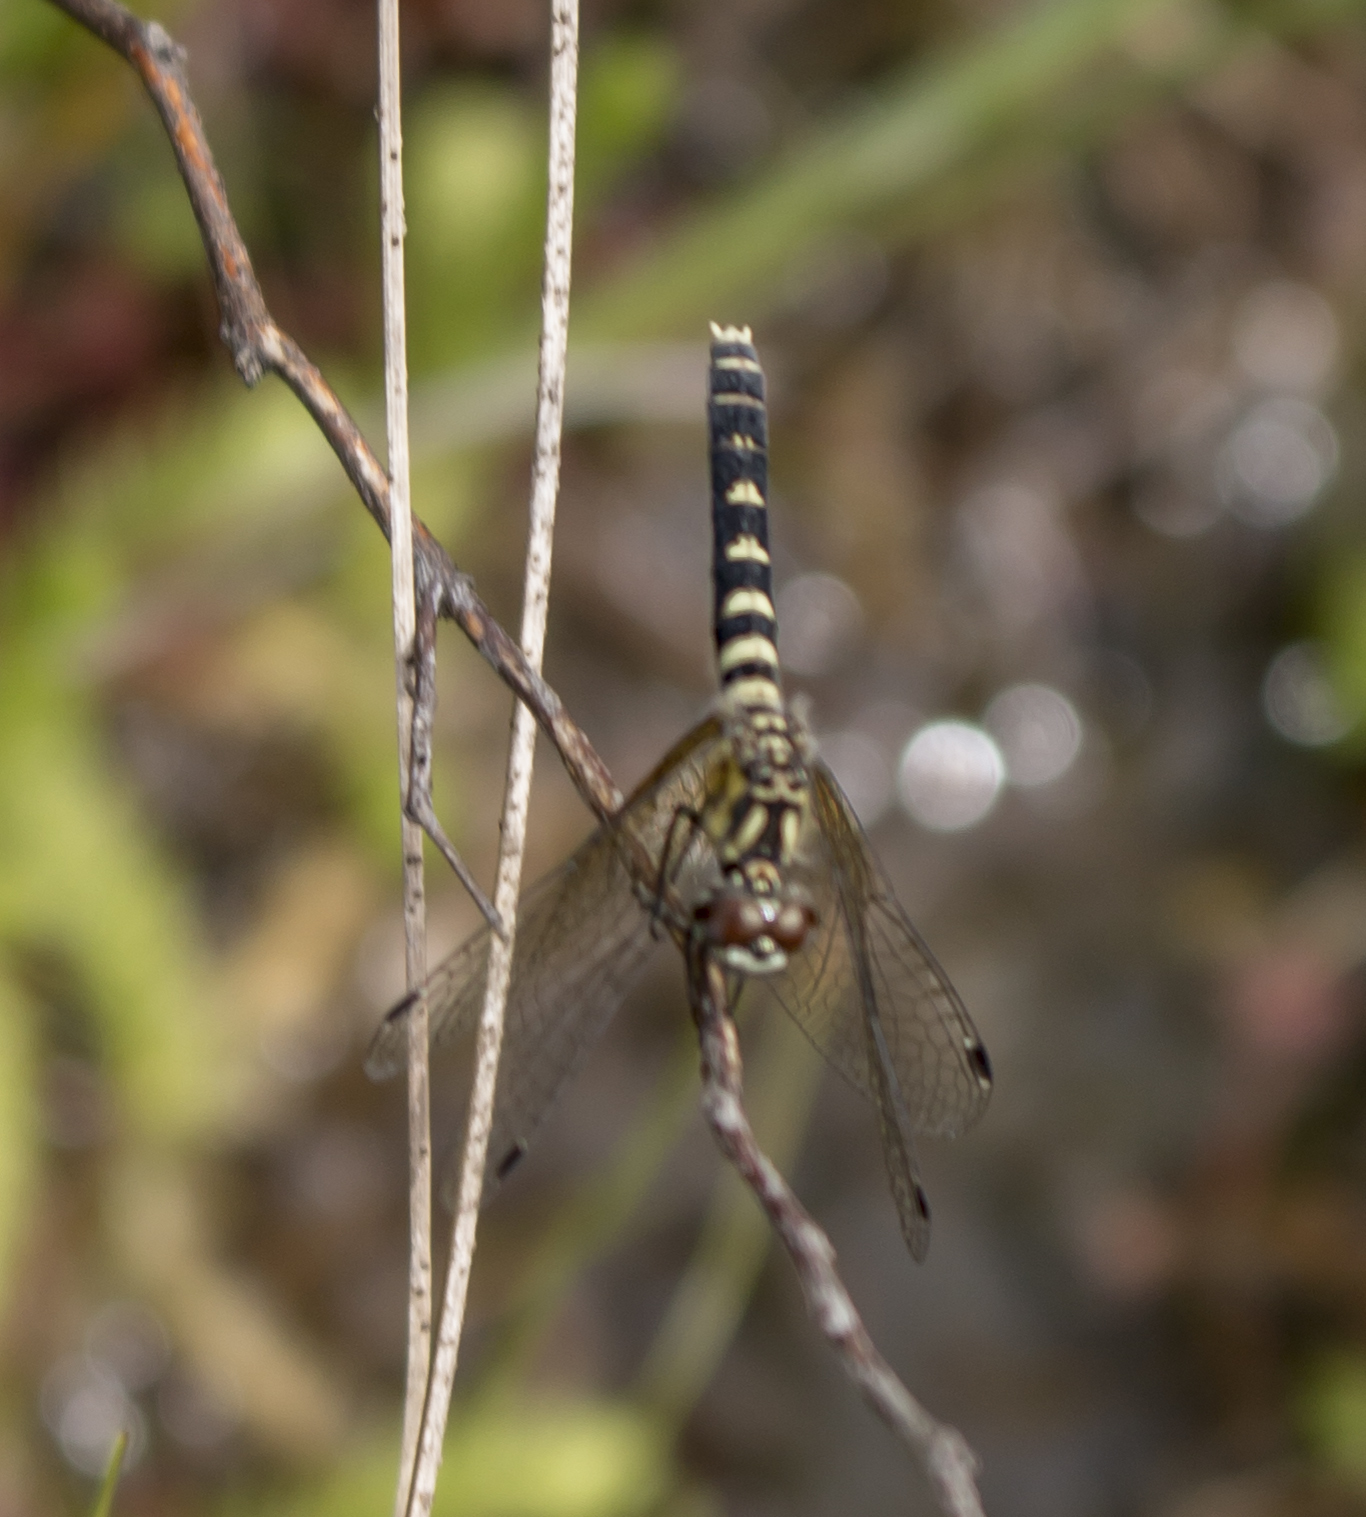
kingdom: Animalia
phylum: Arthropoda
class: Insecta
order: Odonata
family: Libellulidae
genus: Nannothemis
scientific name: Nannothemis bella
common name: Elfin skimmer
